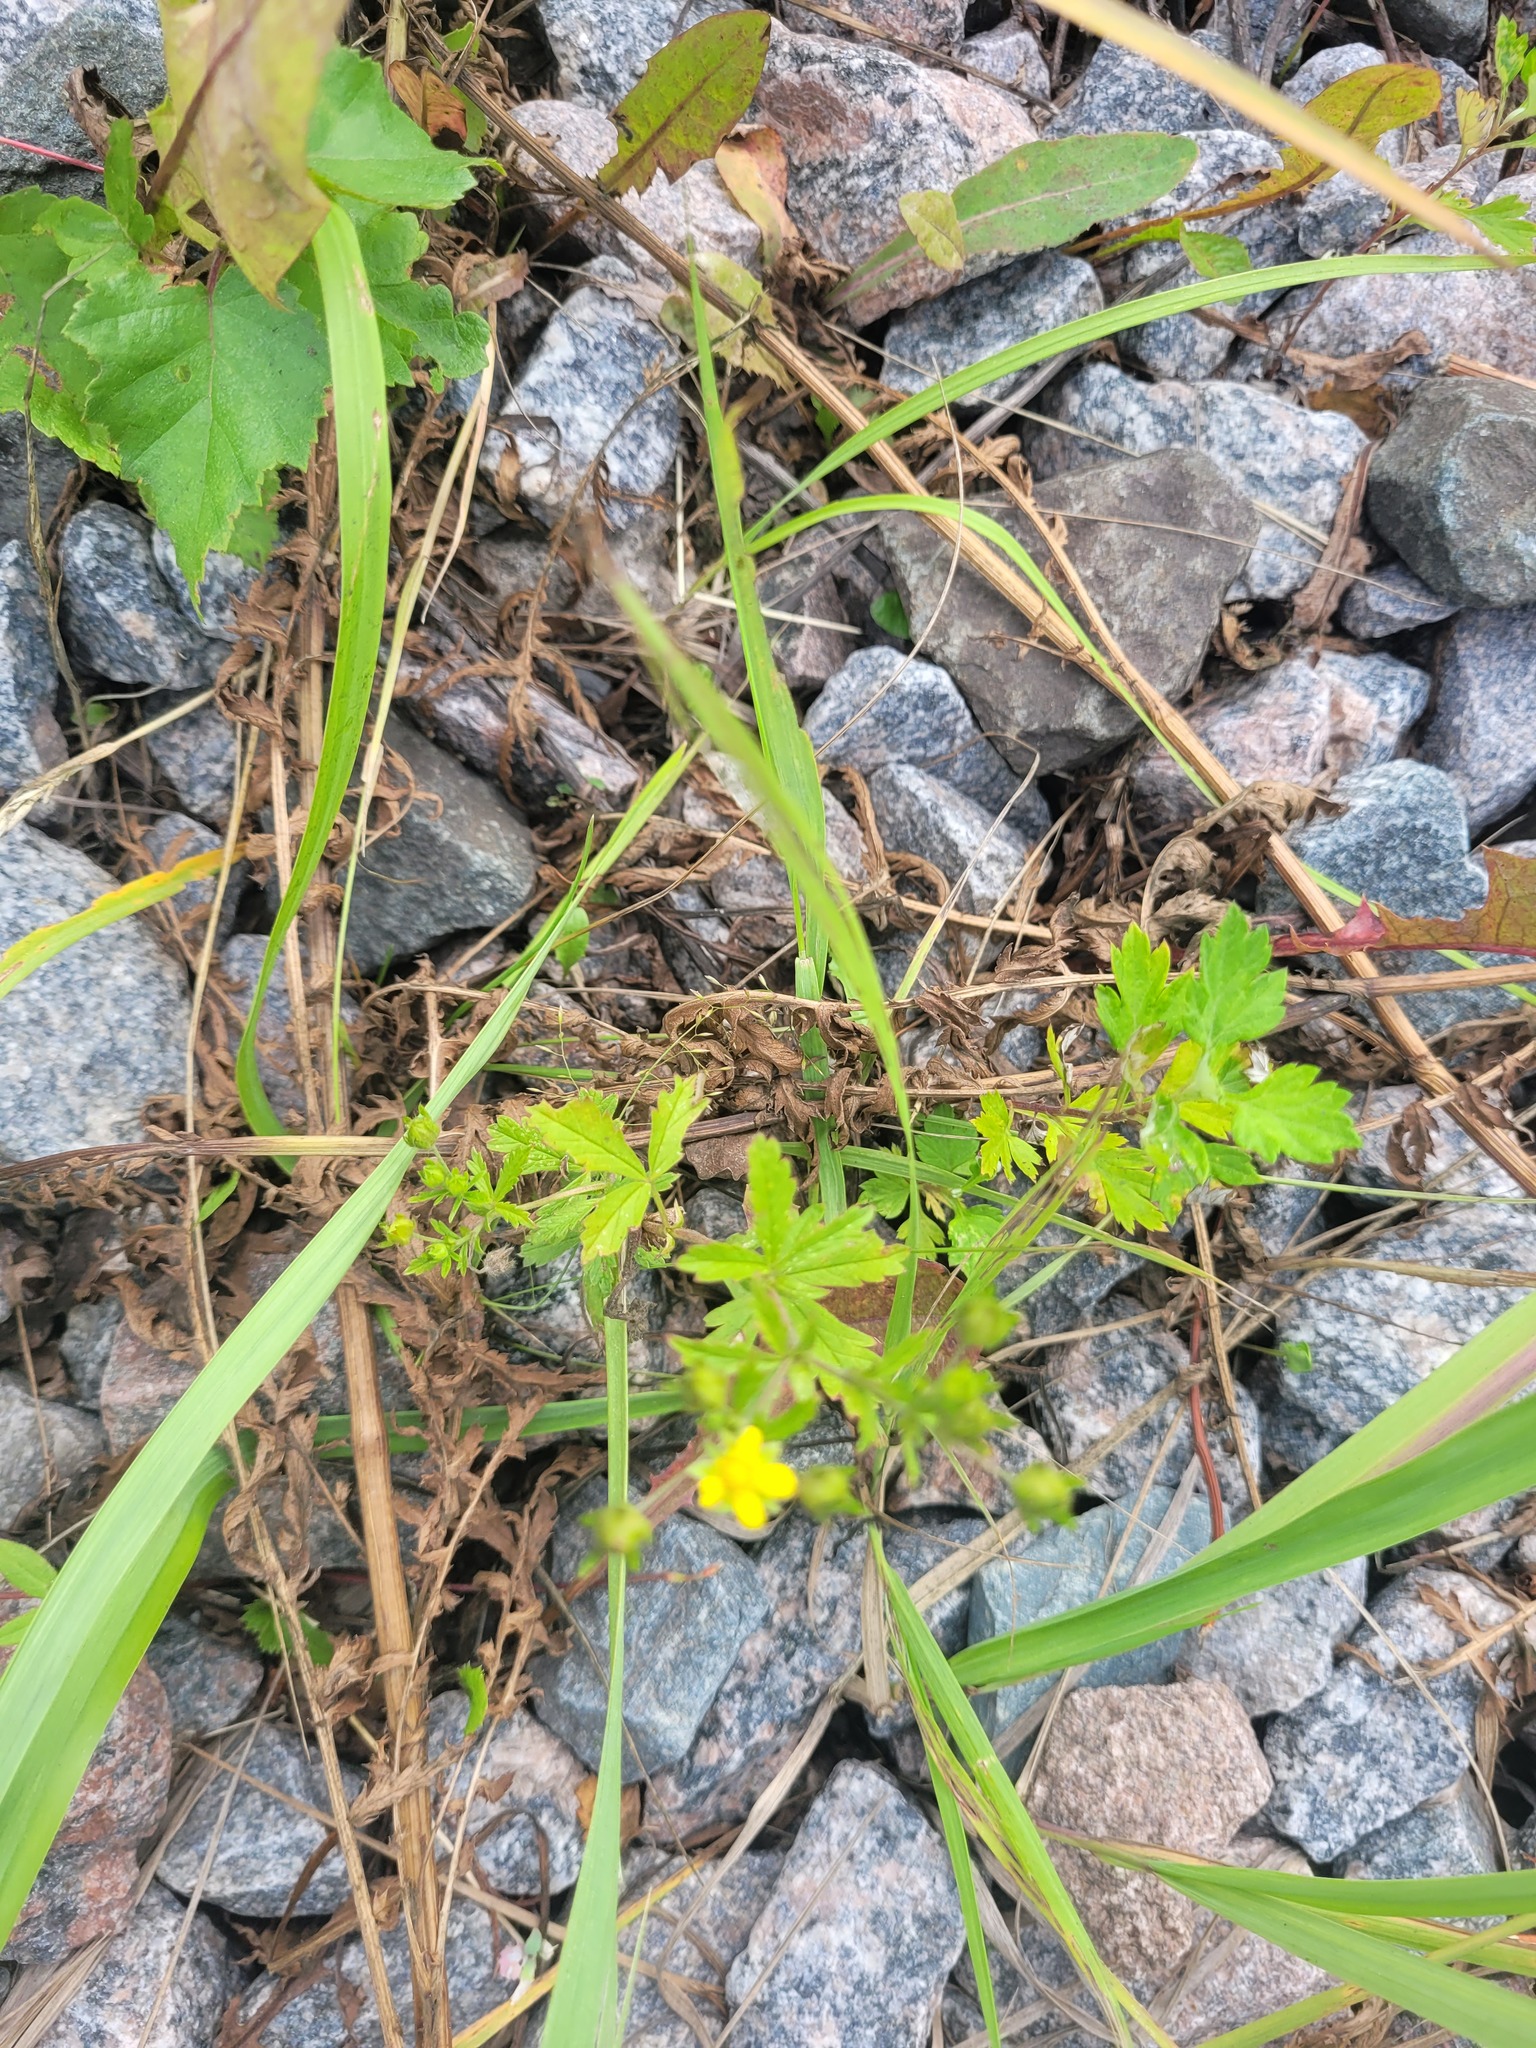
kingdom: Plantae
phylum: Tracheophyta
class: Magnoliopsida
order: Rosales
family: Rosaceae
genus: Potentilla
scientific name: Potentilla intermedia
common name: Downy cinquefoil
